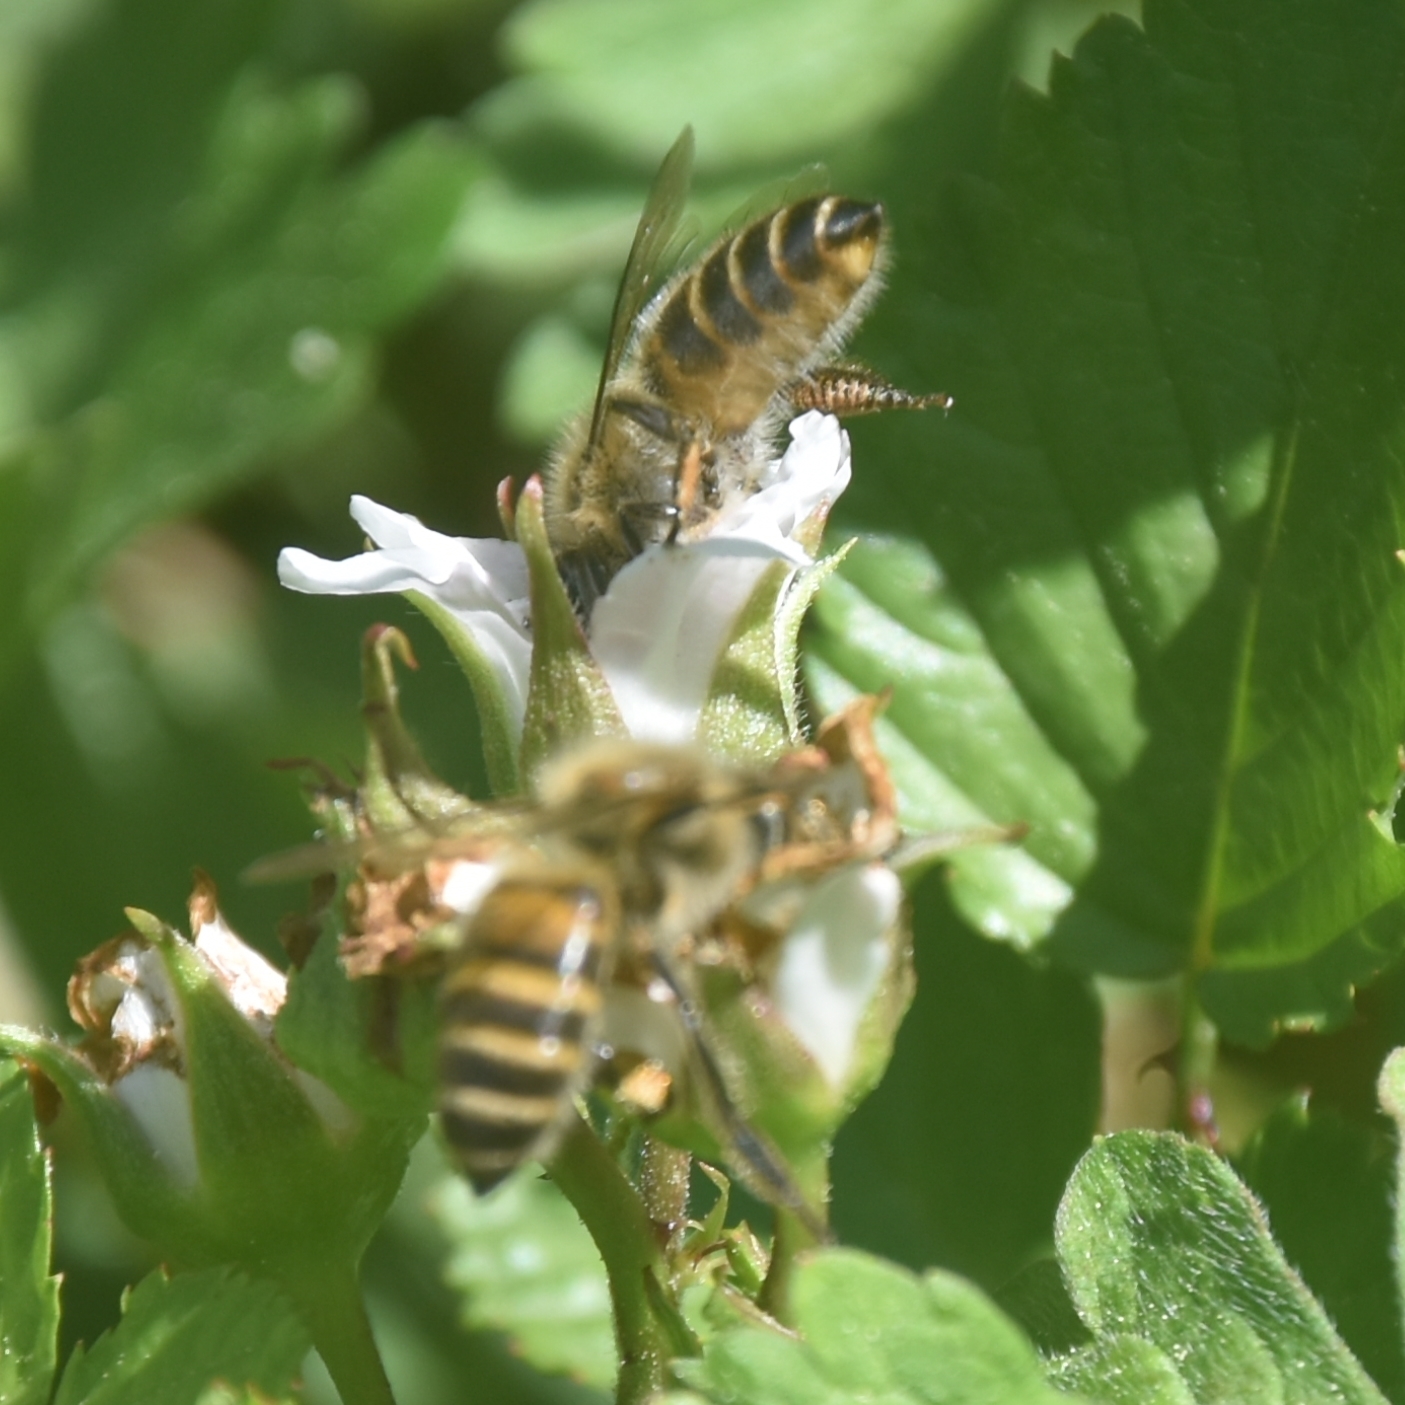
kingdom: Animalia
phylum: Arthropoda
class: Insecta
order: Hymenoptera
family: Apidae
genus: Apis
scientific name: Apis cerana
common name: Honey bee
